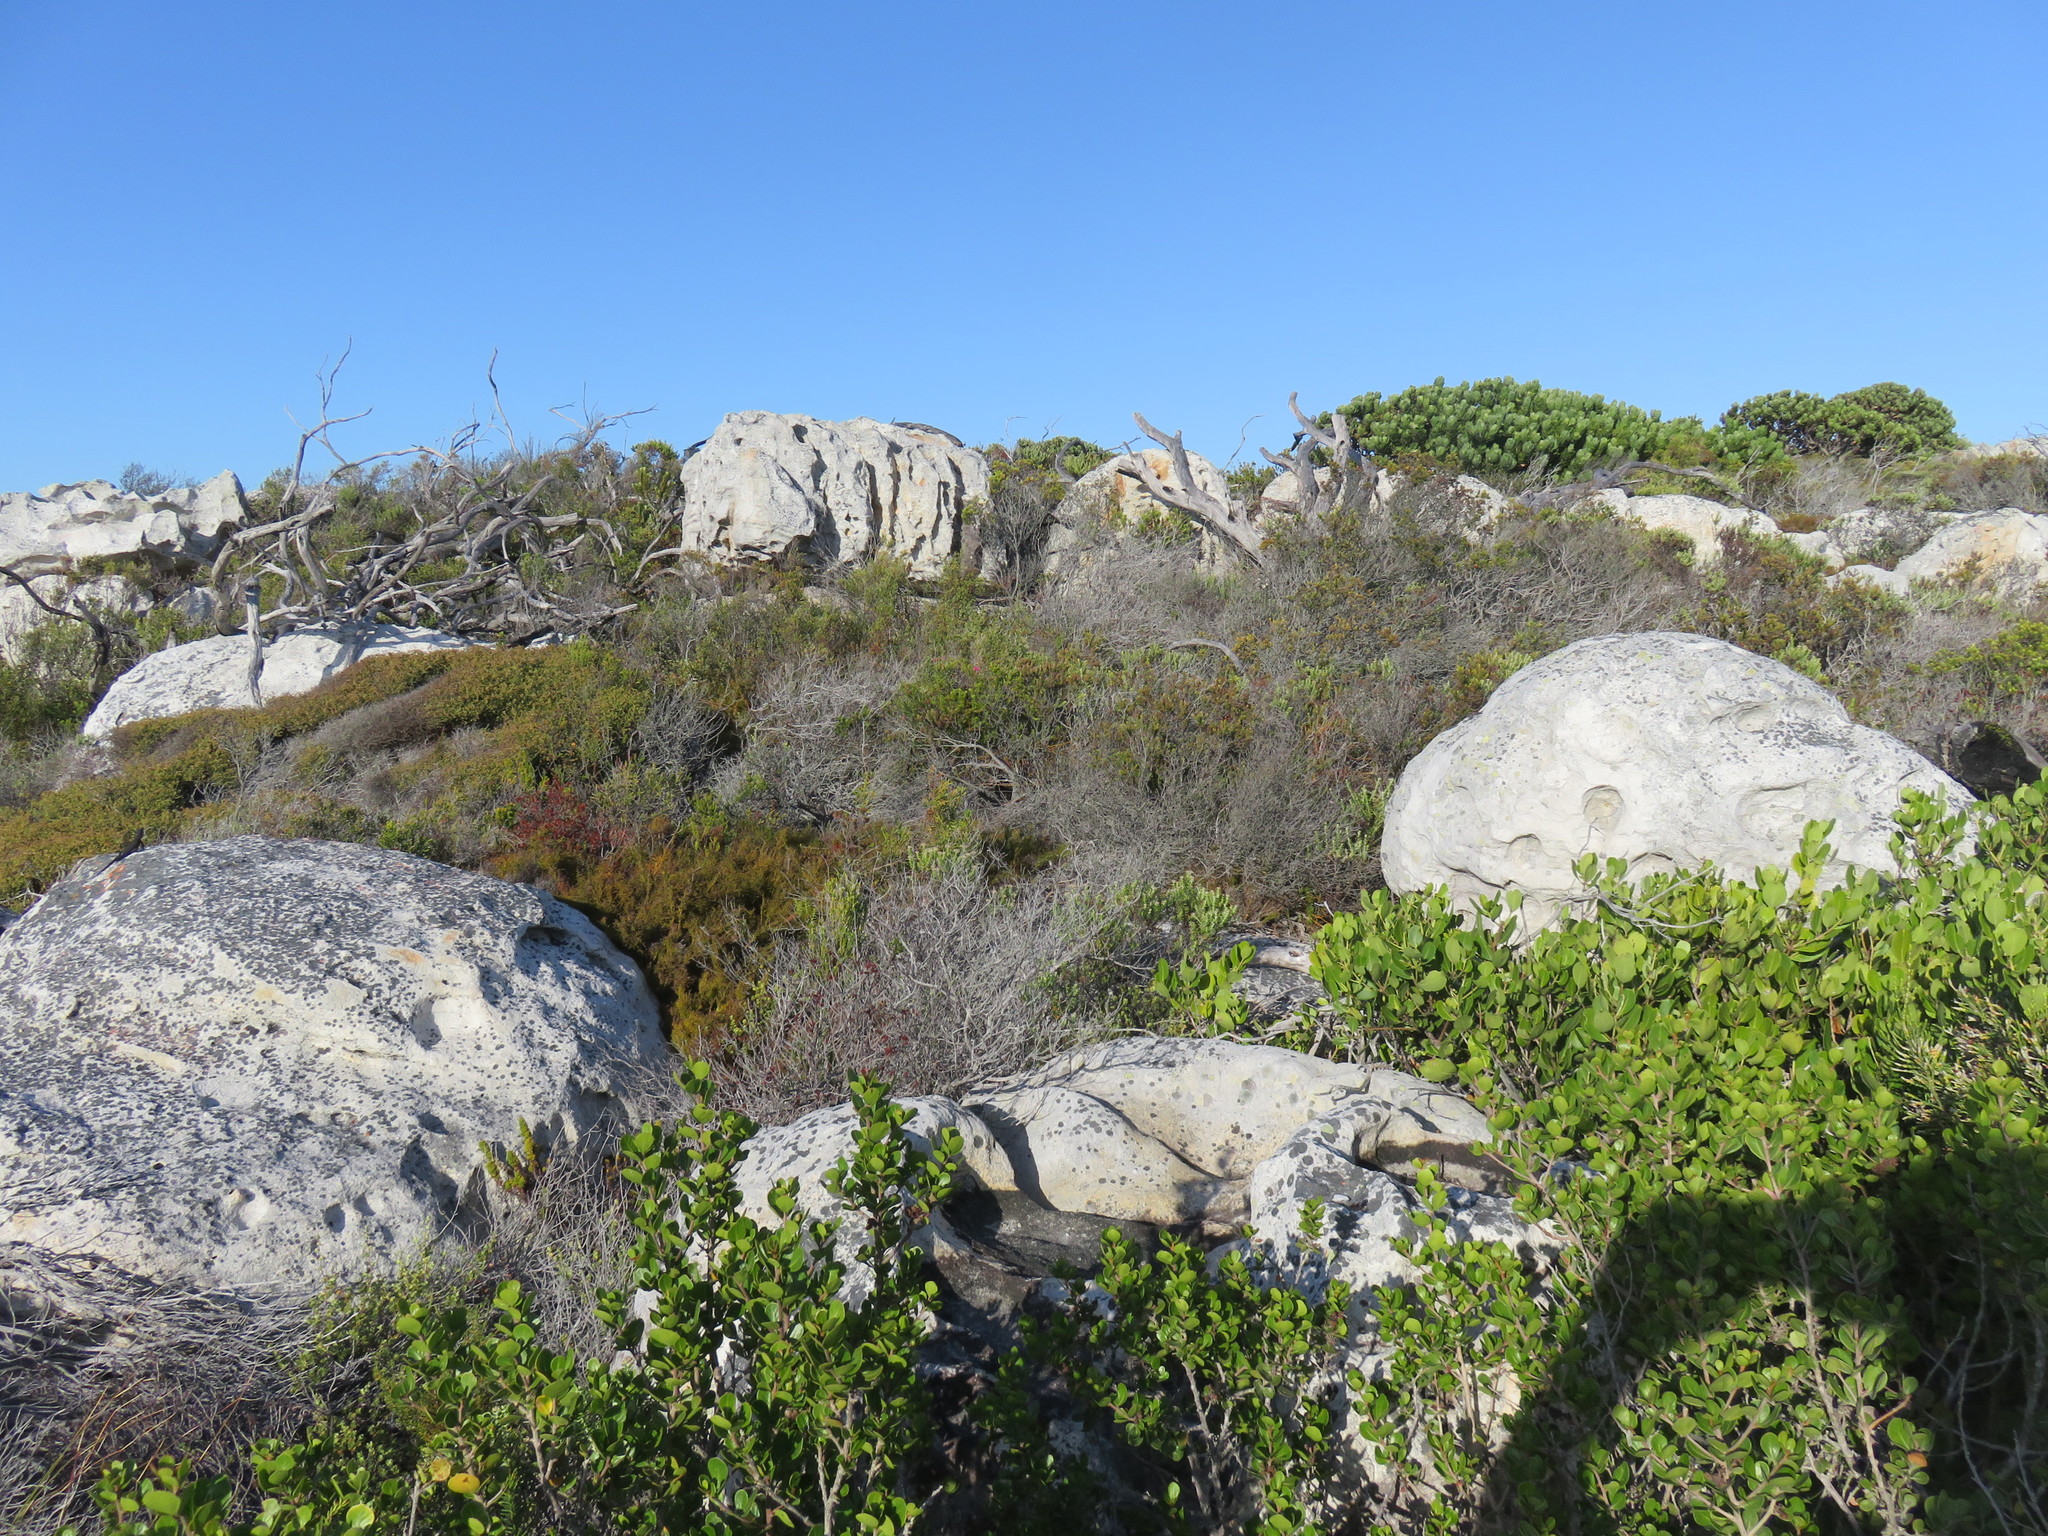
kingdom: Plantae
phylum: Tracheophyta
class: Liliopsida
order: Poales
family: Restionaceae
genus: Restio
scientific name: Restio cincinnatus
